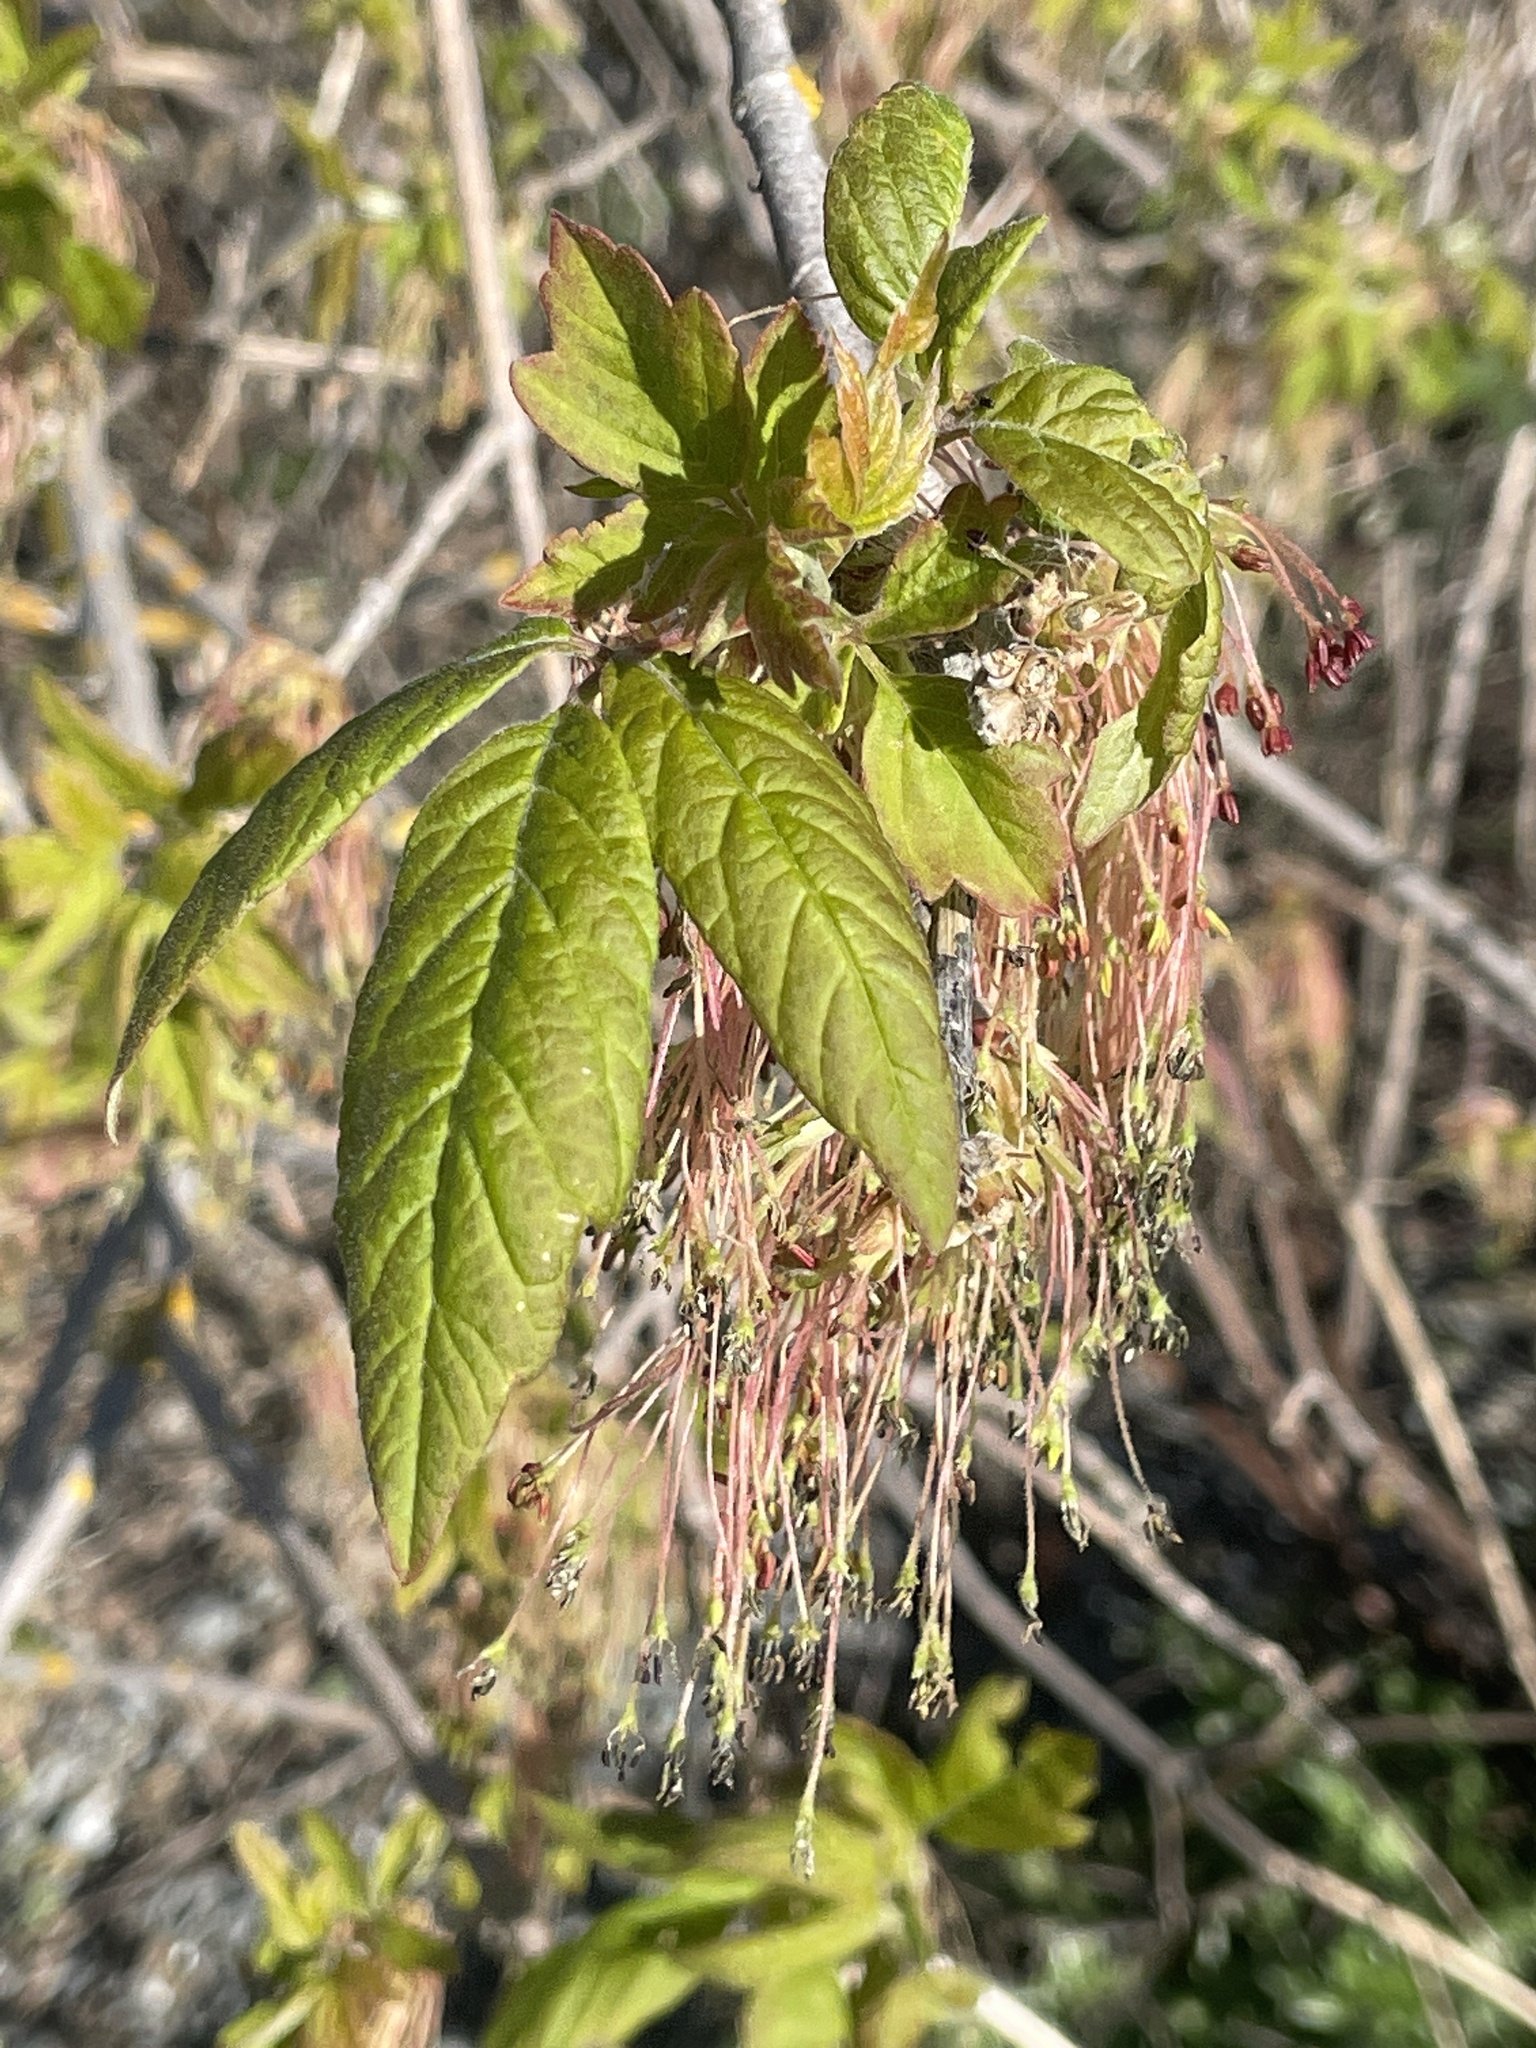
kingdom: Plantae
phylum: Tracheophyta
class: Magnoliopsida
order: Sapindales
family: Sapindaceae
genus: Acer
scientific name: Acer negundo
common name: Ashleaf maple
